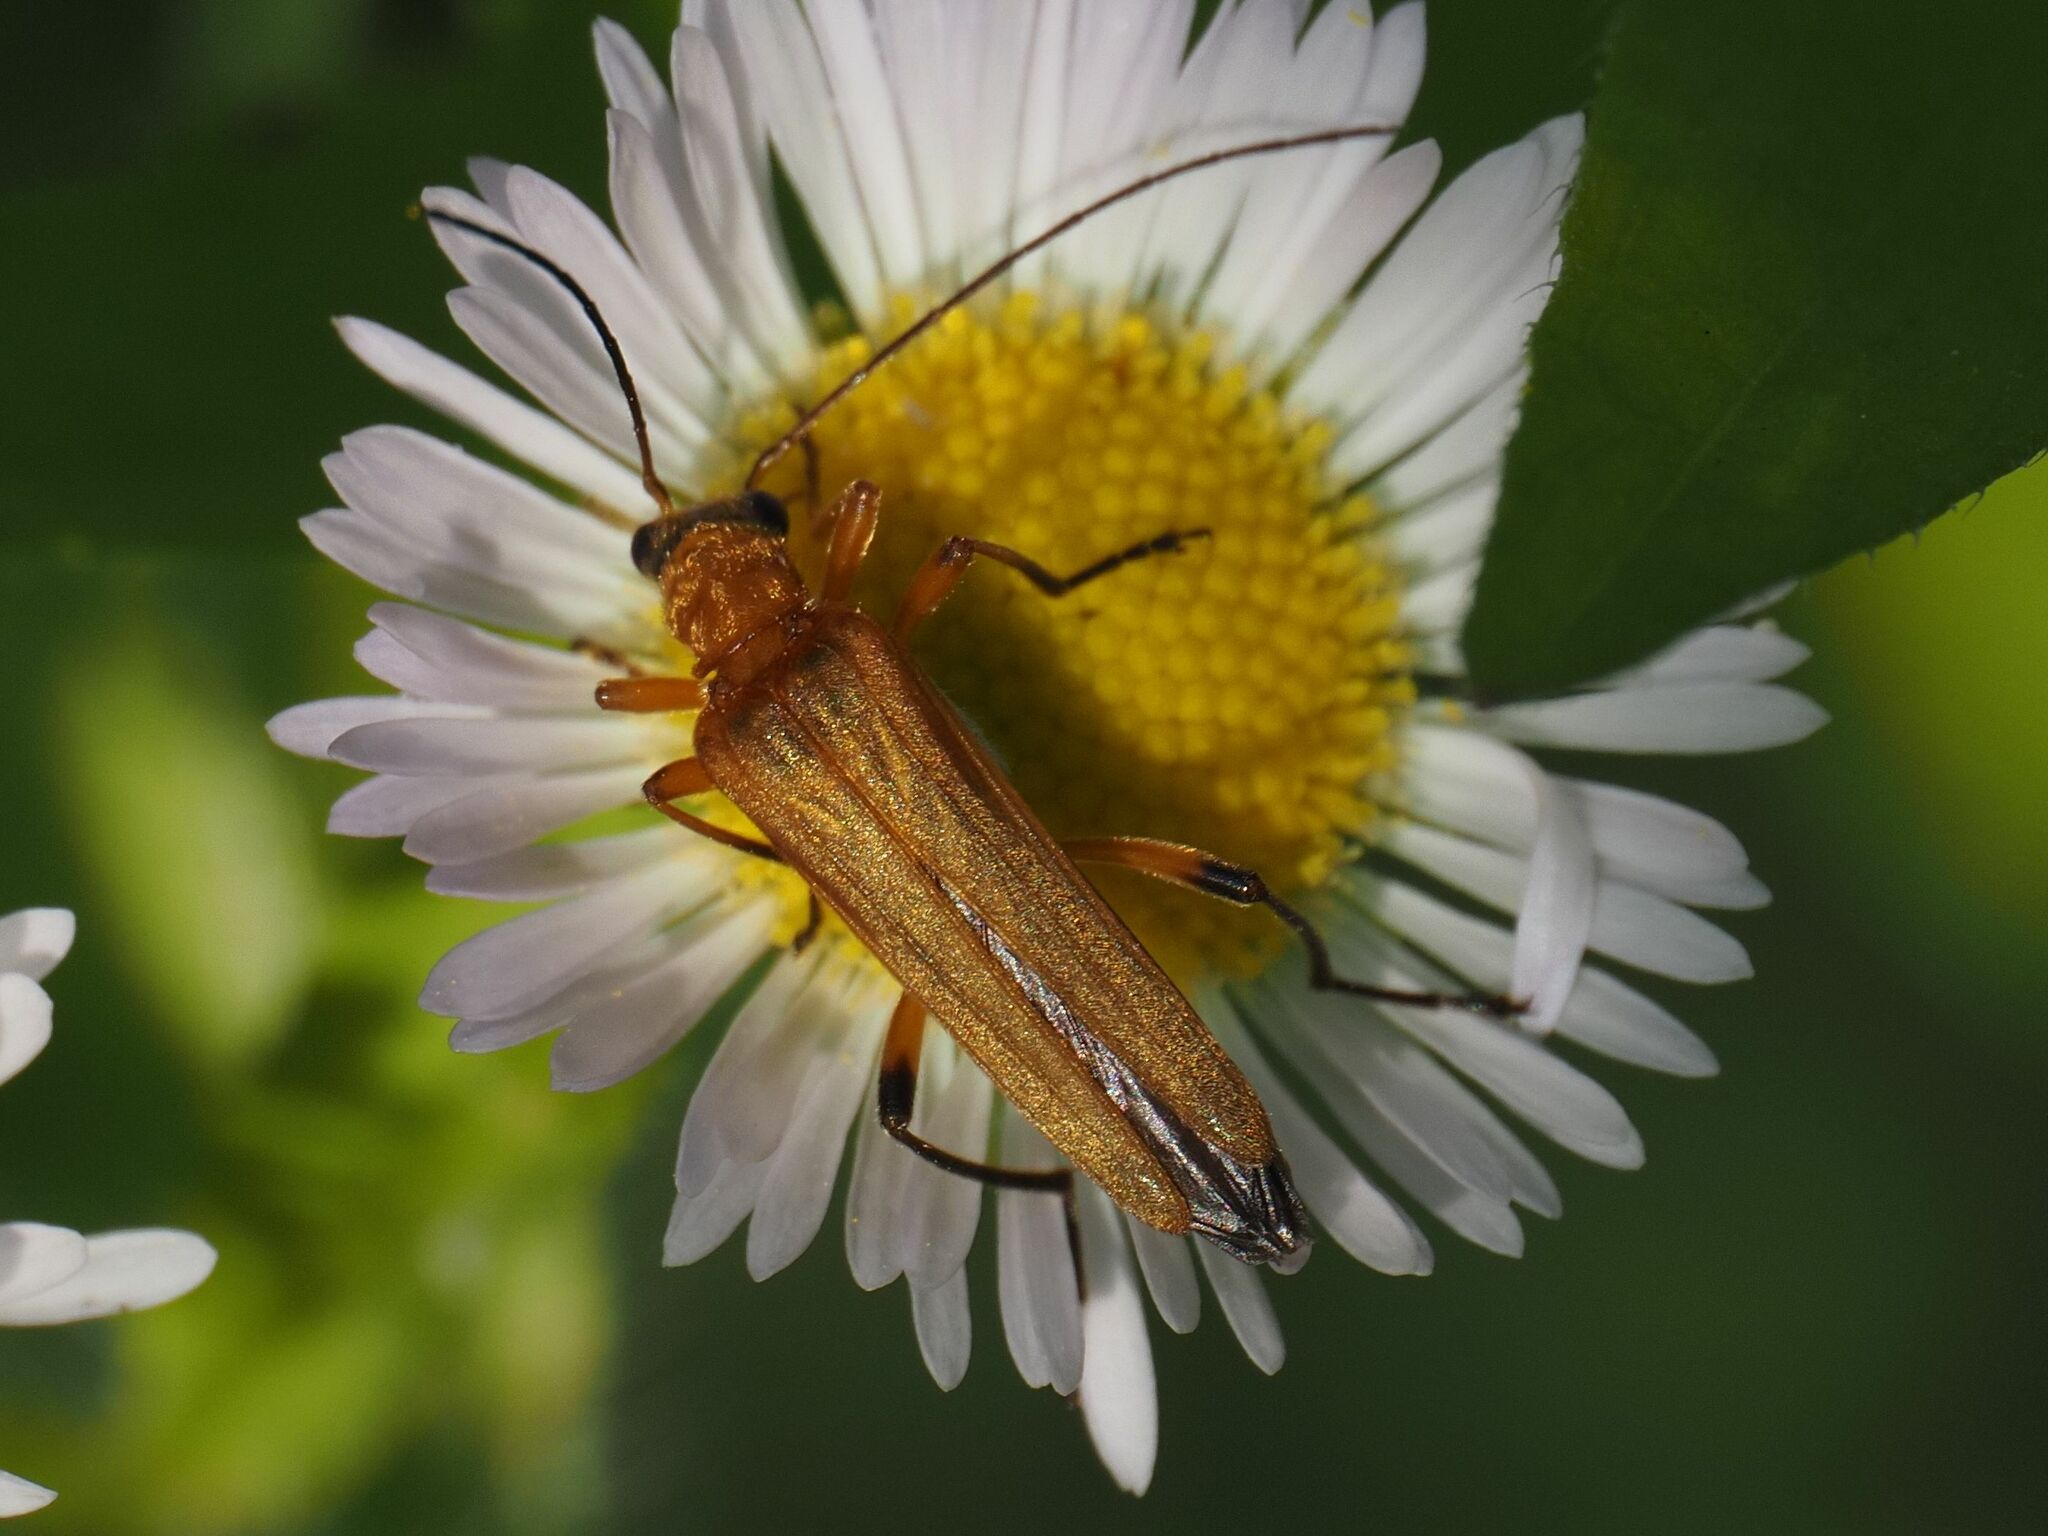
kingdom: Animalia
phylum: Arthropoda
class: Insecta
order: Coleoptera
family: Oedemeridae
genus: Oedemera
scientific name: Oedemera podagrariae
